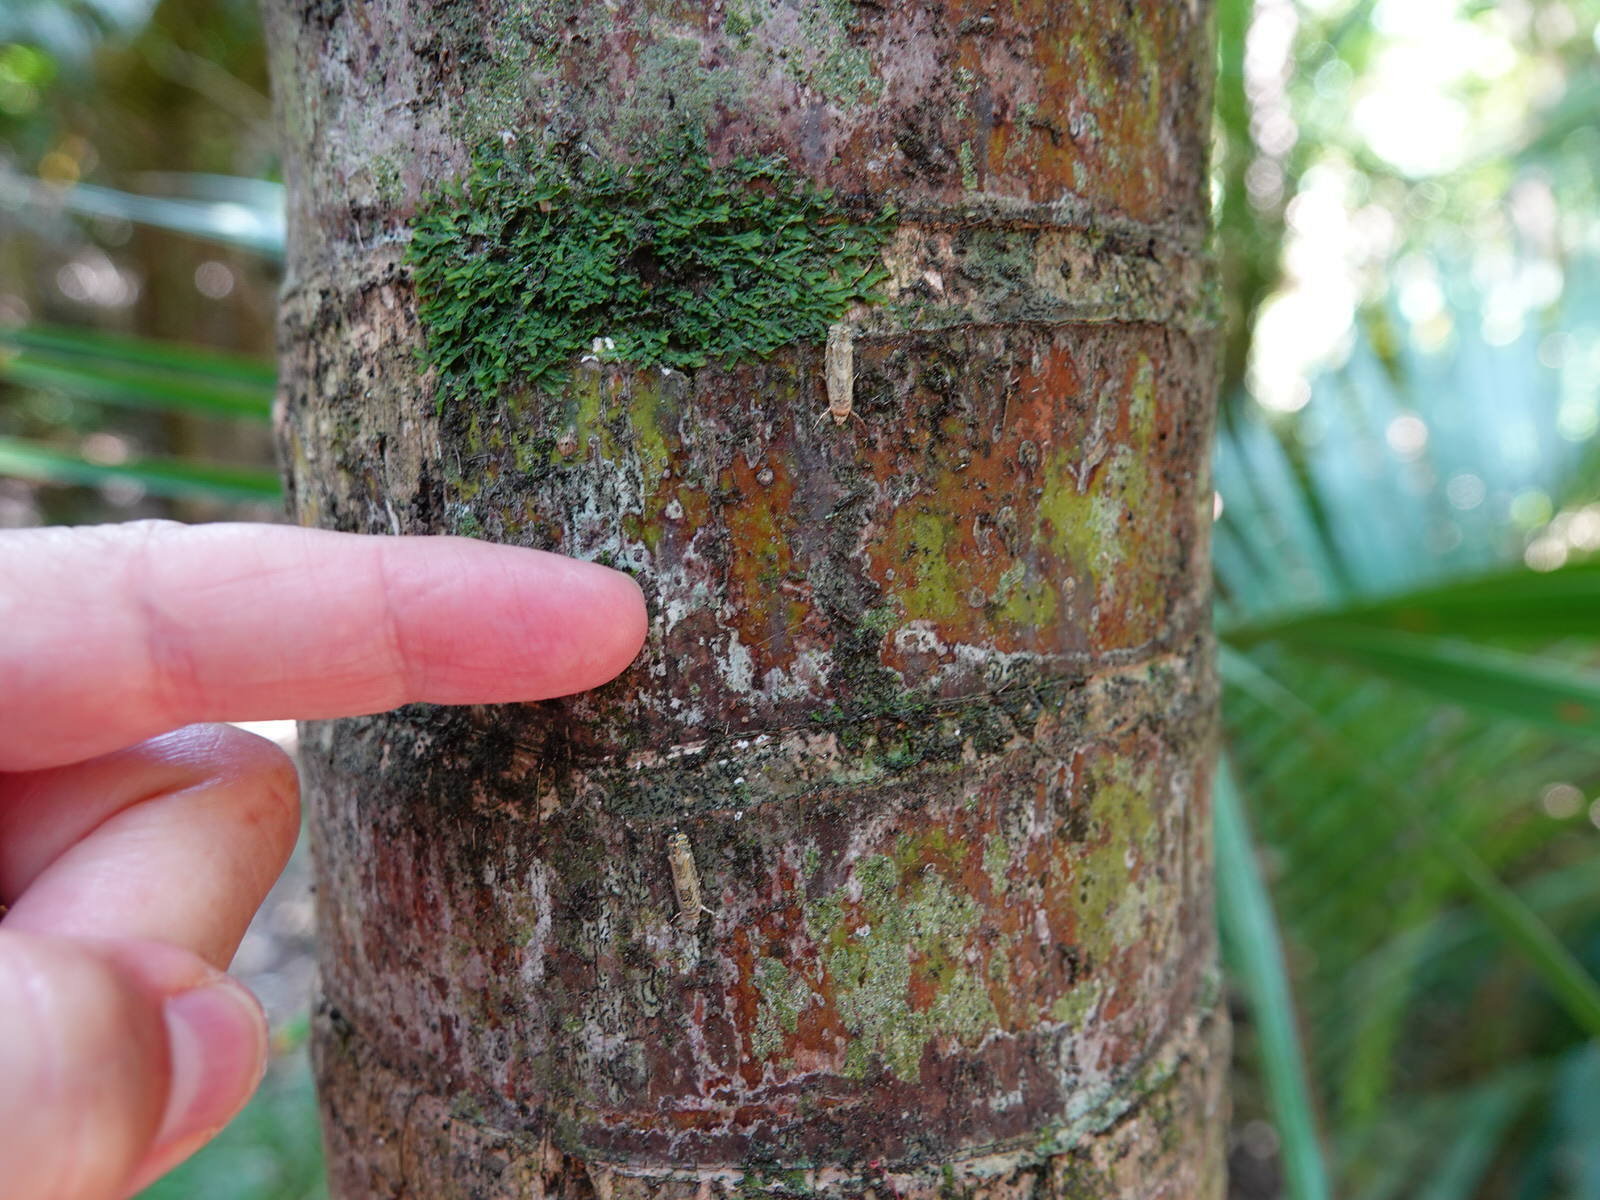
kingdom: Animalia
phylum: Arthropoda
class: Insecta
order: Lepidoptera
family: Plutellidae
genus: Doxophyrtis
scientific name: Doxophyrtis hydrocosma
